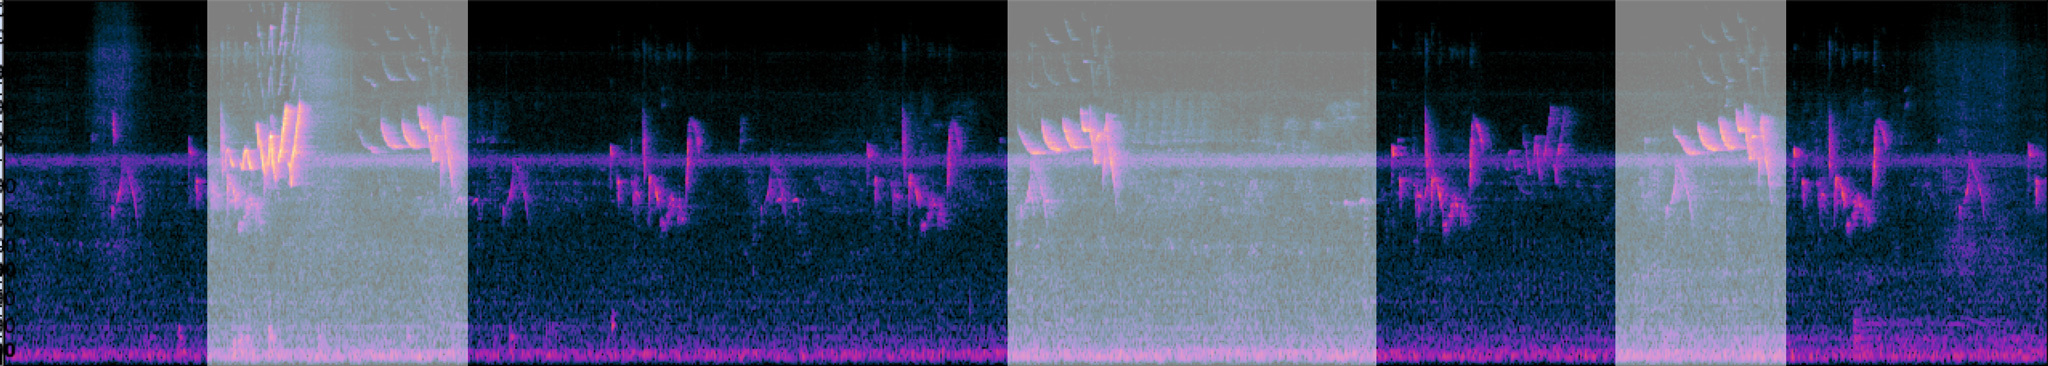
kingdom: Animalia
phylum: Chordata
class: Aves
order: Passeriformes
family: Vireonidae
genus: Vireo
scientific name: Vireo griseus
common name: White-eyed vireo
